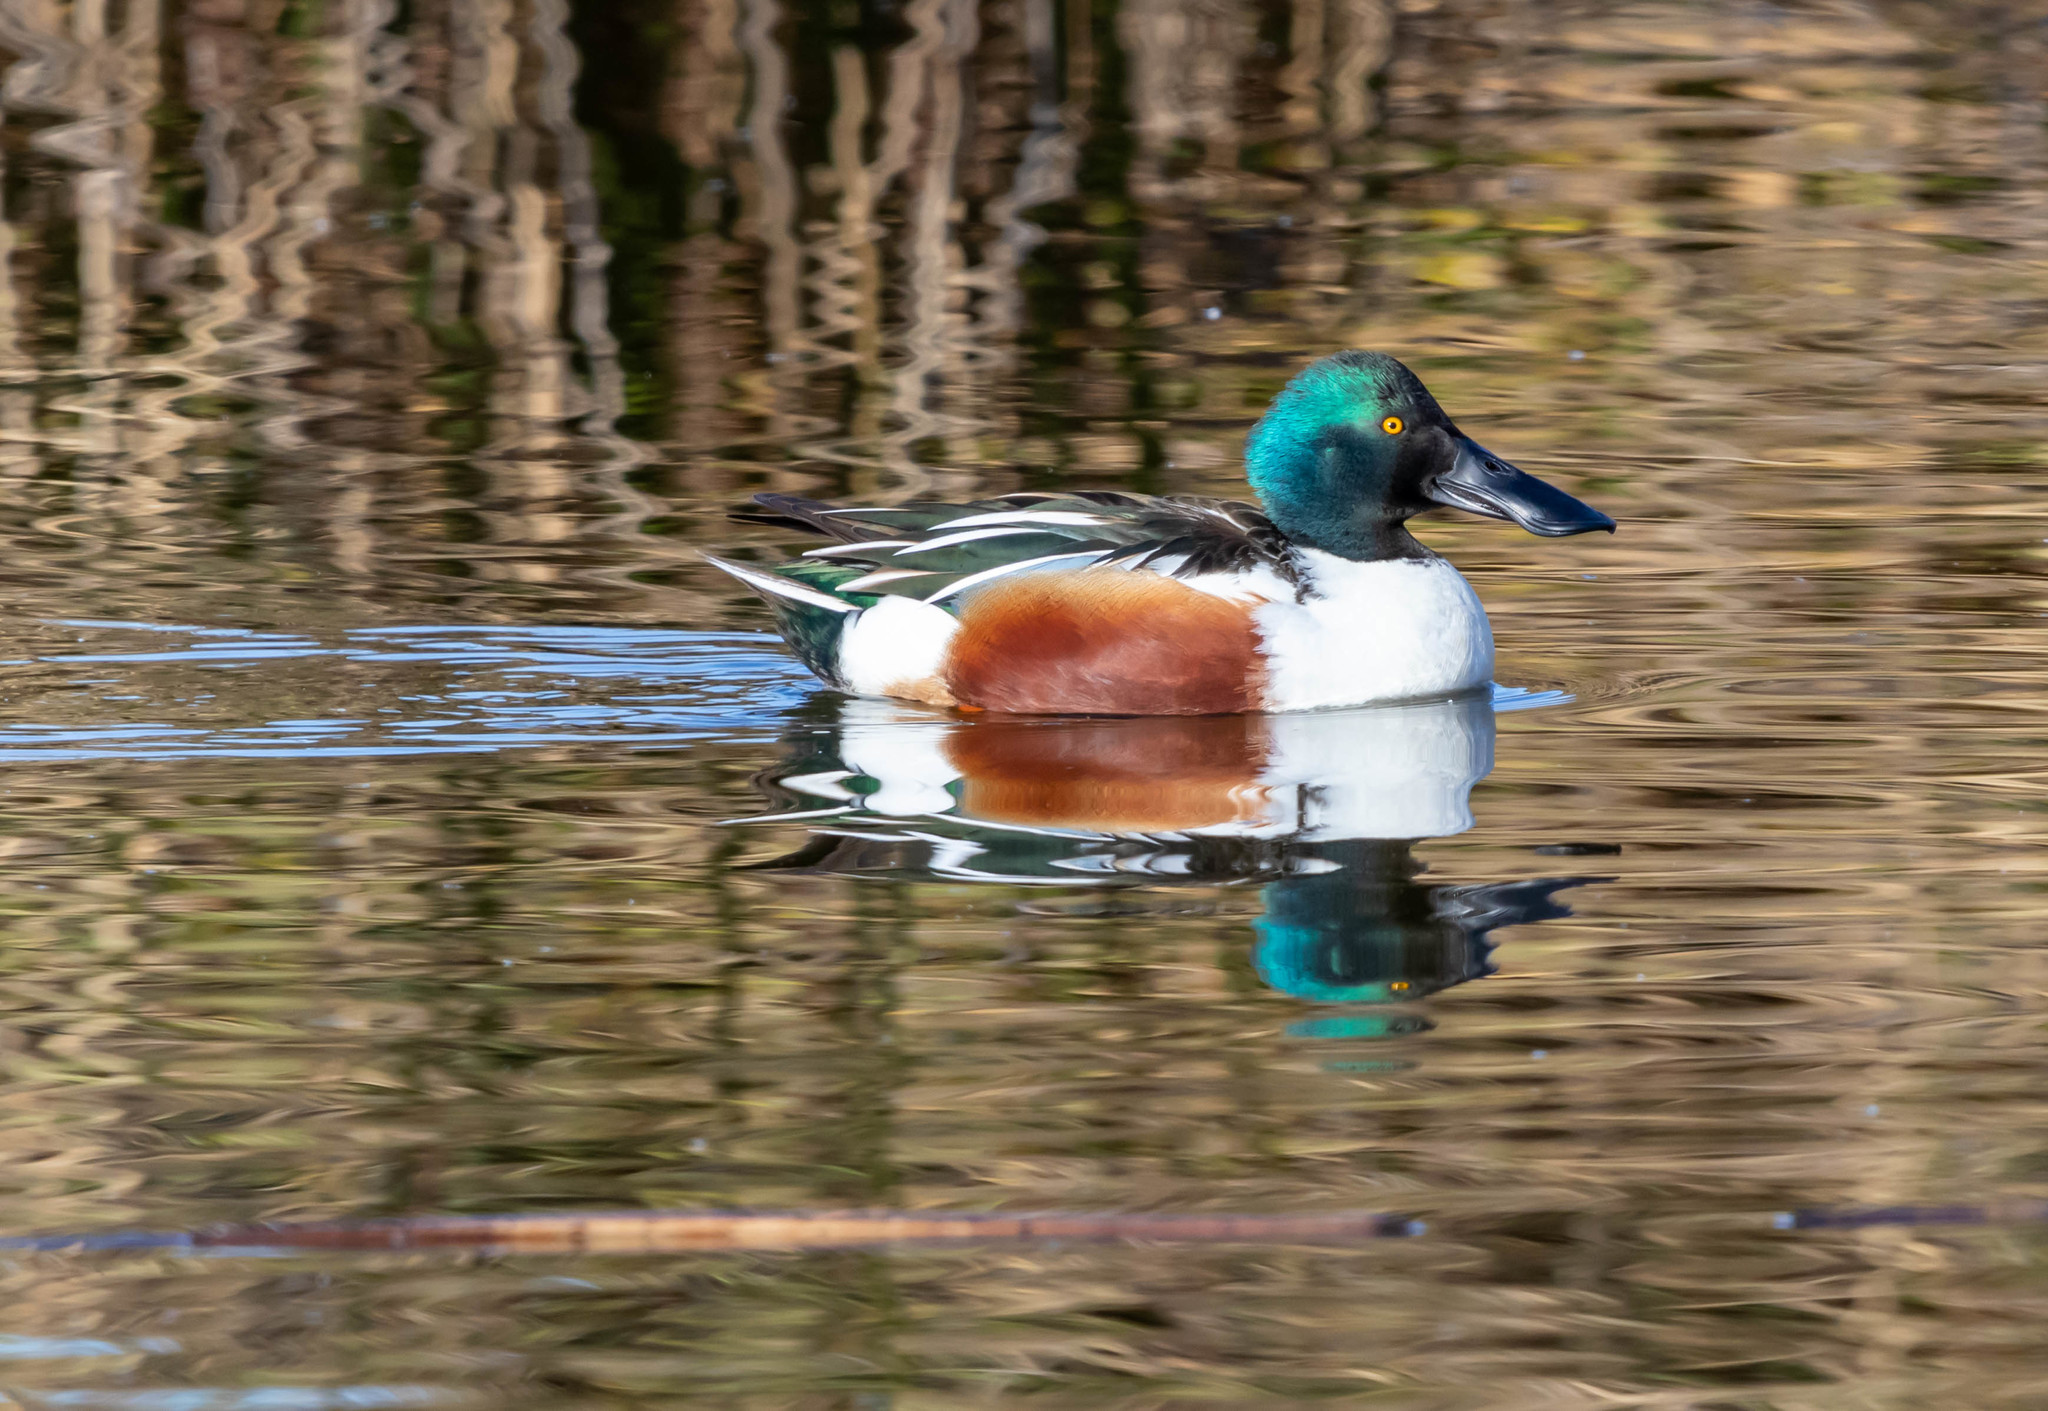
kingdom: Animalia
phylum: Chordata
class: Aves
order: Anseriformes
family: Anatidae
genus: Spatula
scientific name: Spatula clypeata
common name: Northern shoveler
